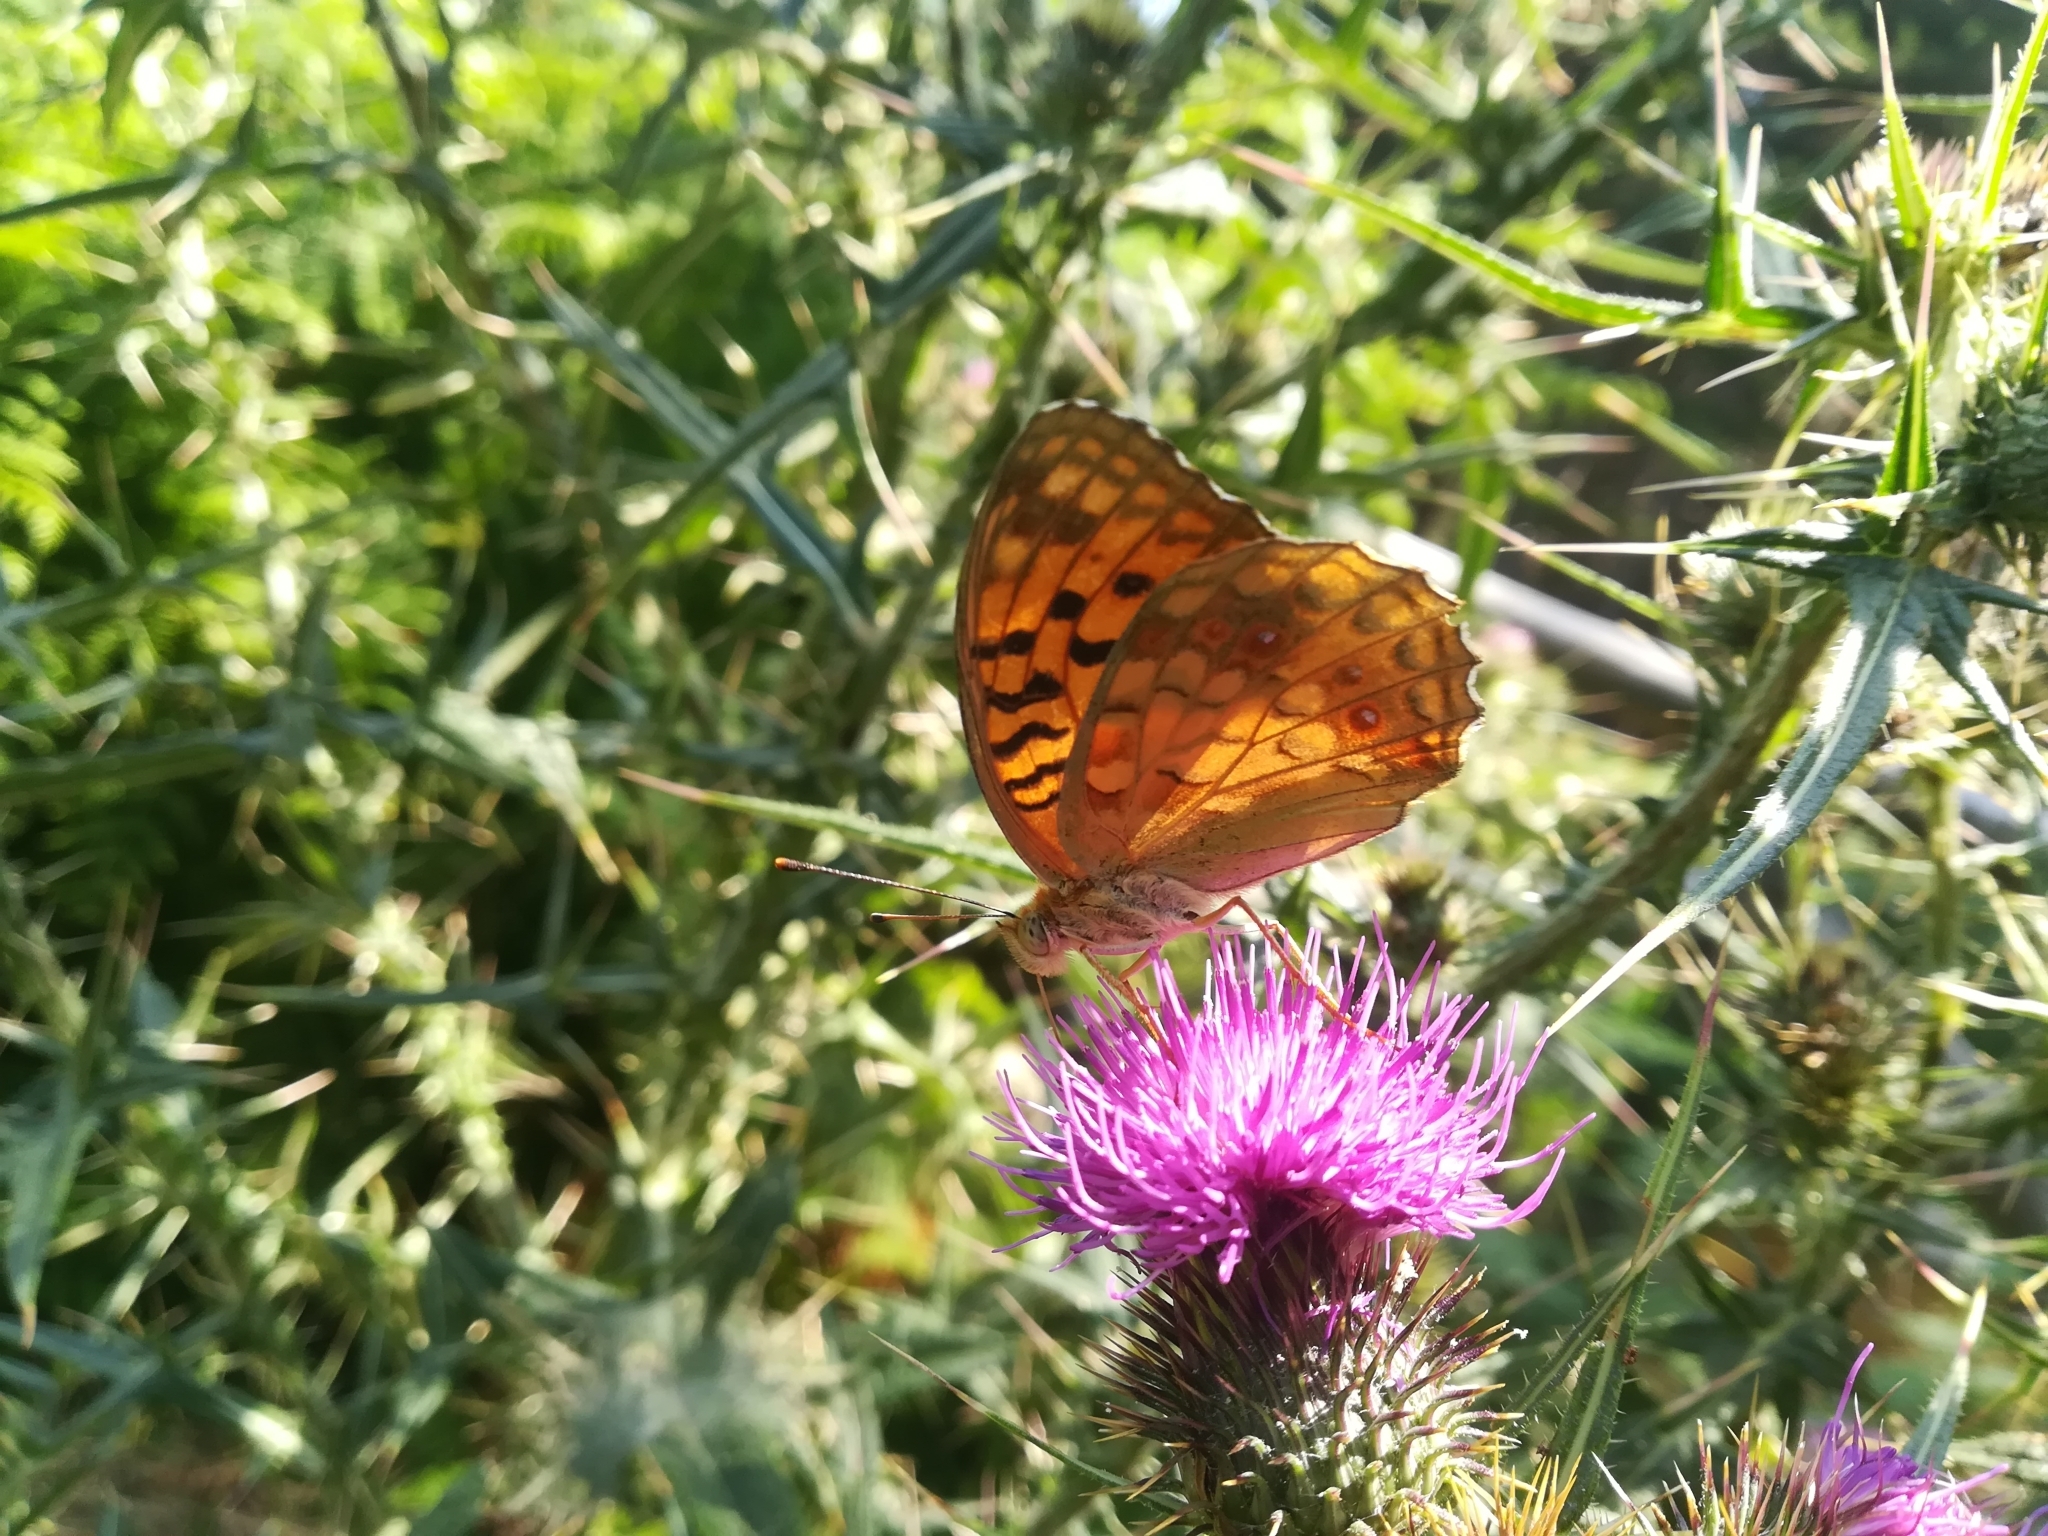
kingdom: Animalia
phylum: Arthropoda
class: Insecta
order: Lepidoptera
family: Nymphalidae
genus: Fabriciana
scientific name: Fabriciana adippe
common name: High brown fritillary
